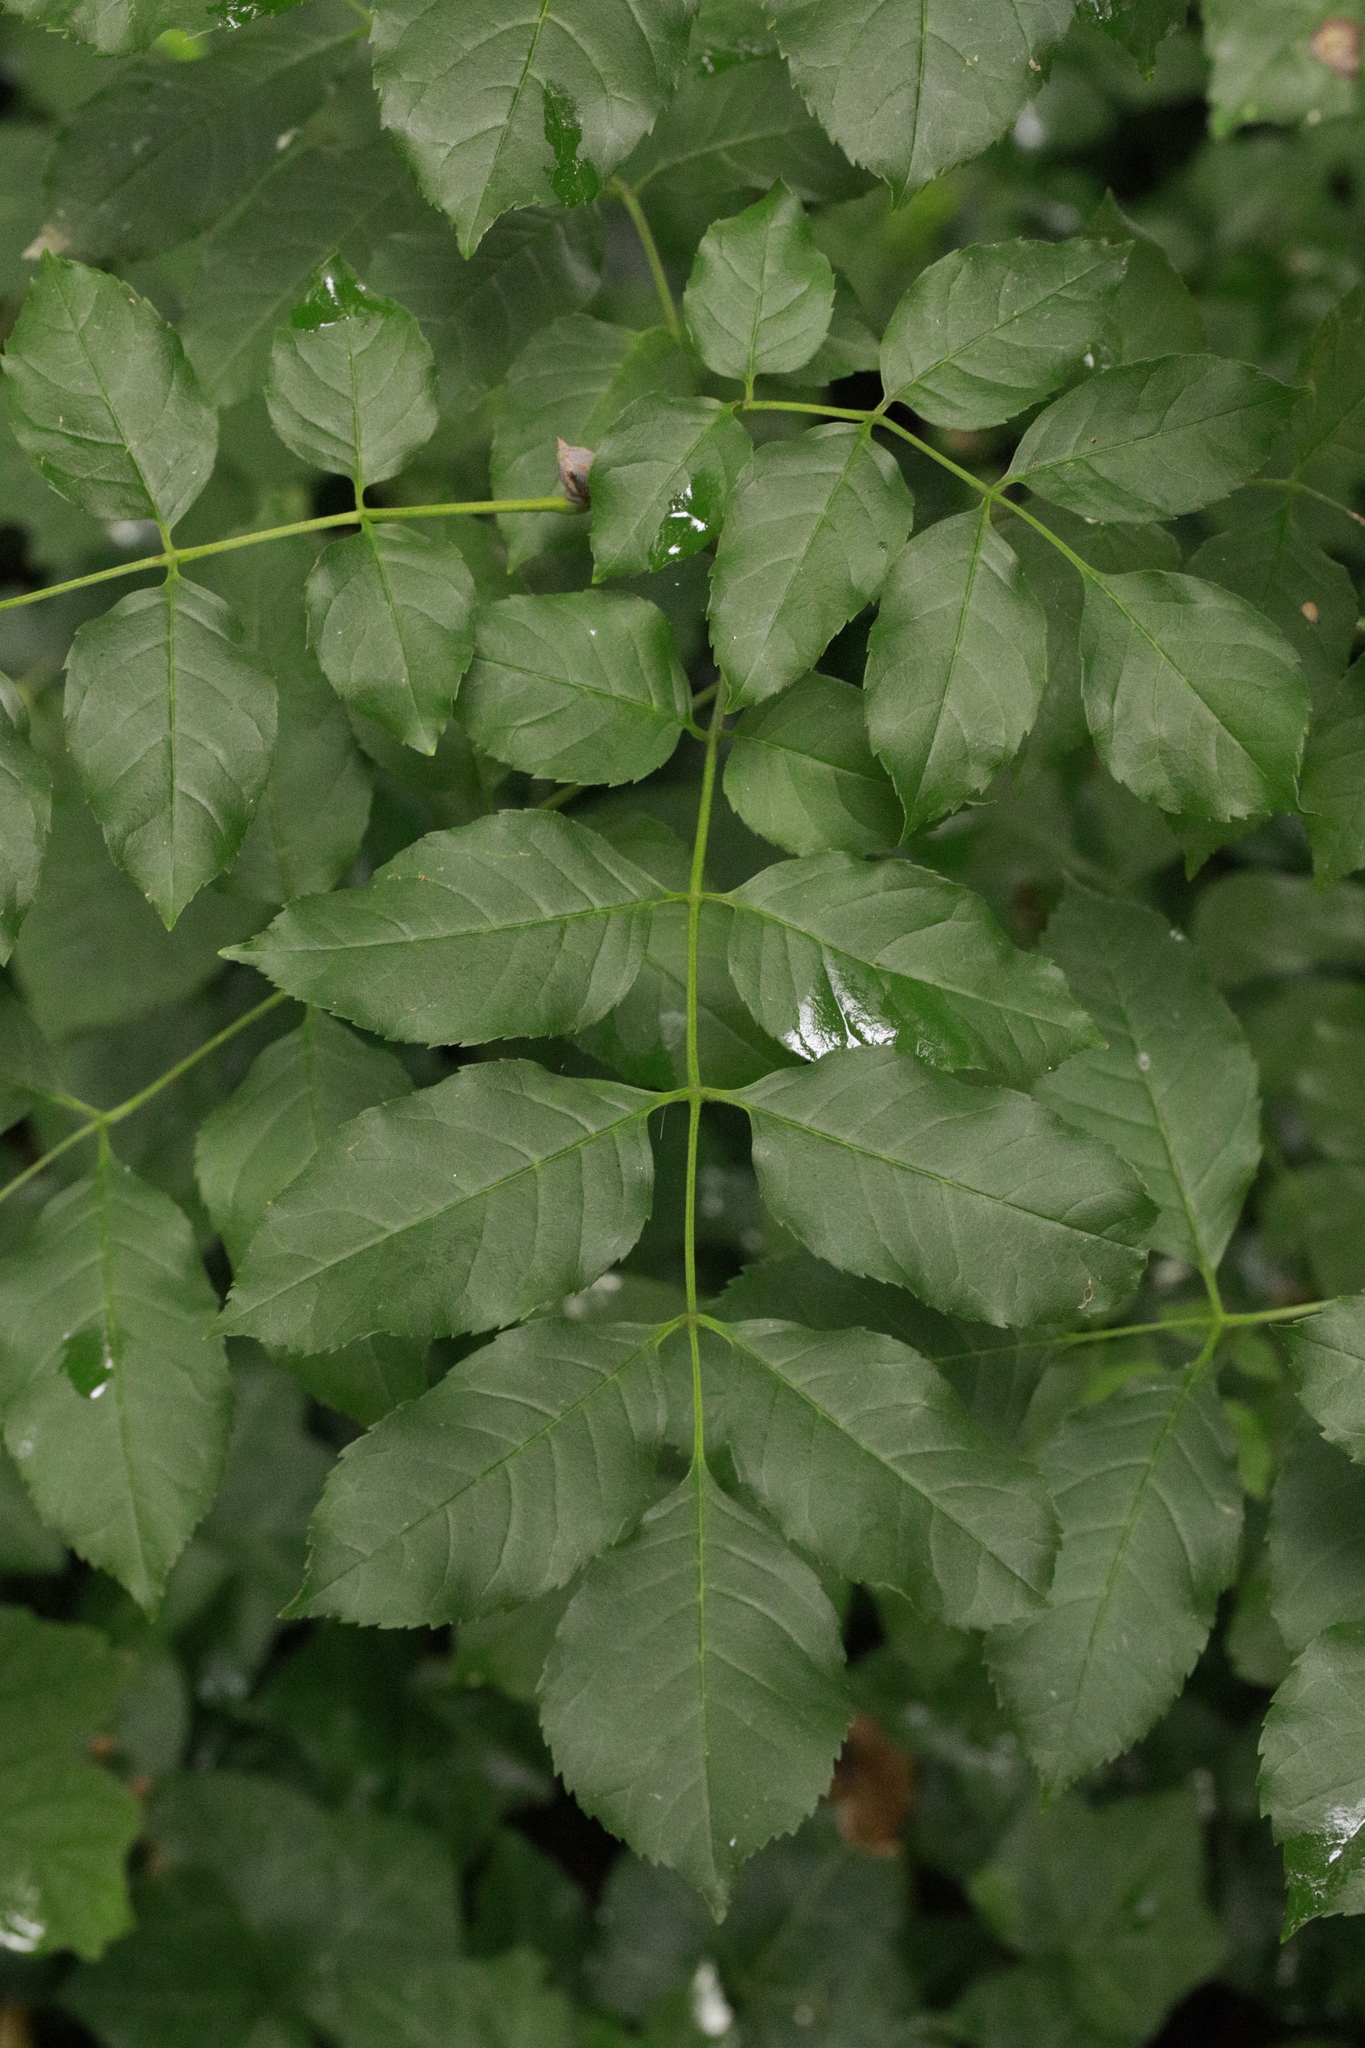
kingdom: Plantae
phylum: Tracheophyta
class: Magnoliopsida
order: Lamiales
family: Oleaceae
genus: Fraxinus
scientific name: Fraxinus excelsior
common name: European ash
